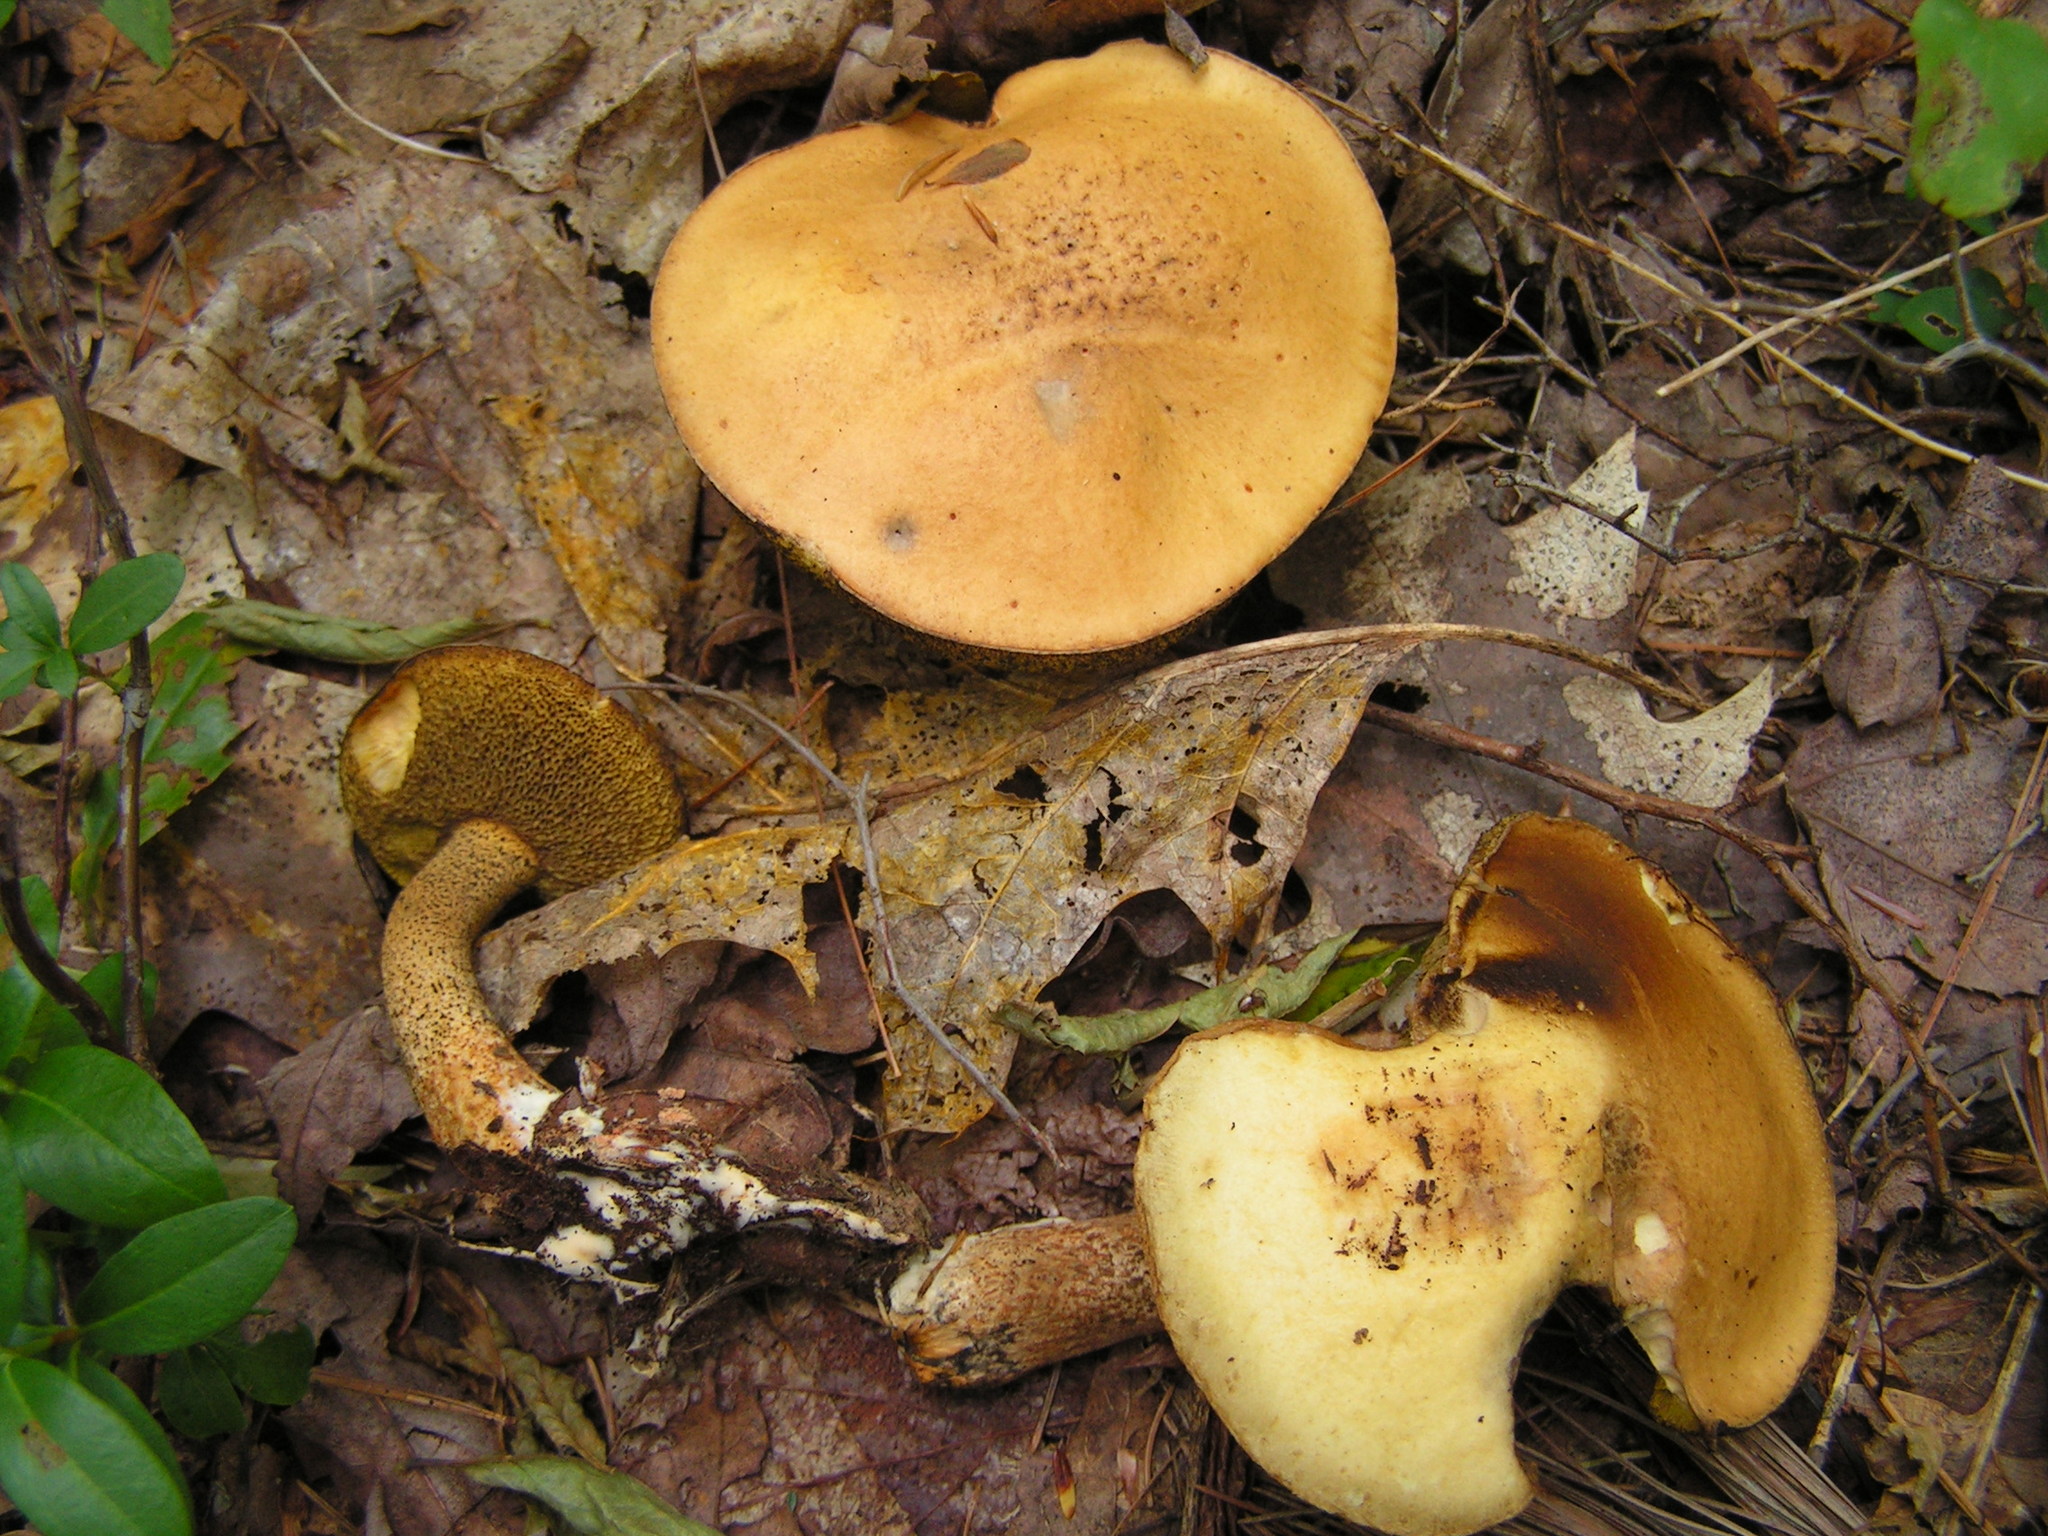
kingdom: Fungi
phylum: Basidiomycota
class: Agaricomycetes
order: Boletales
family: Suillaceae
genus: Suillus
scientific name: Suillus punctipes
